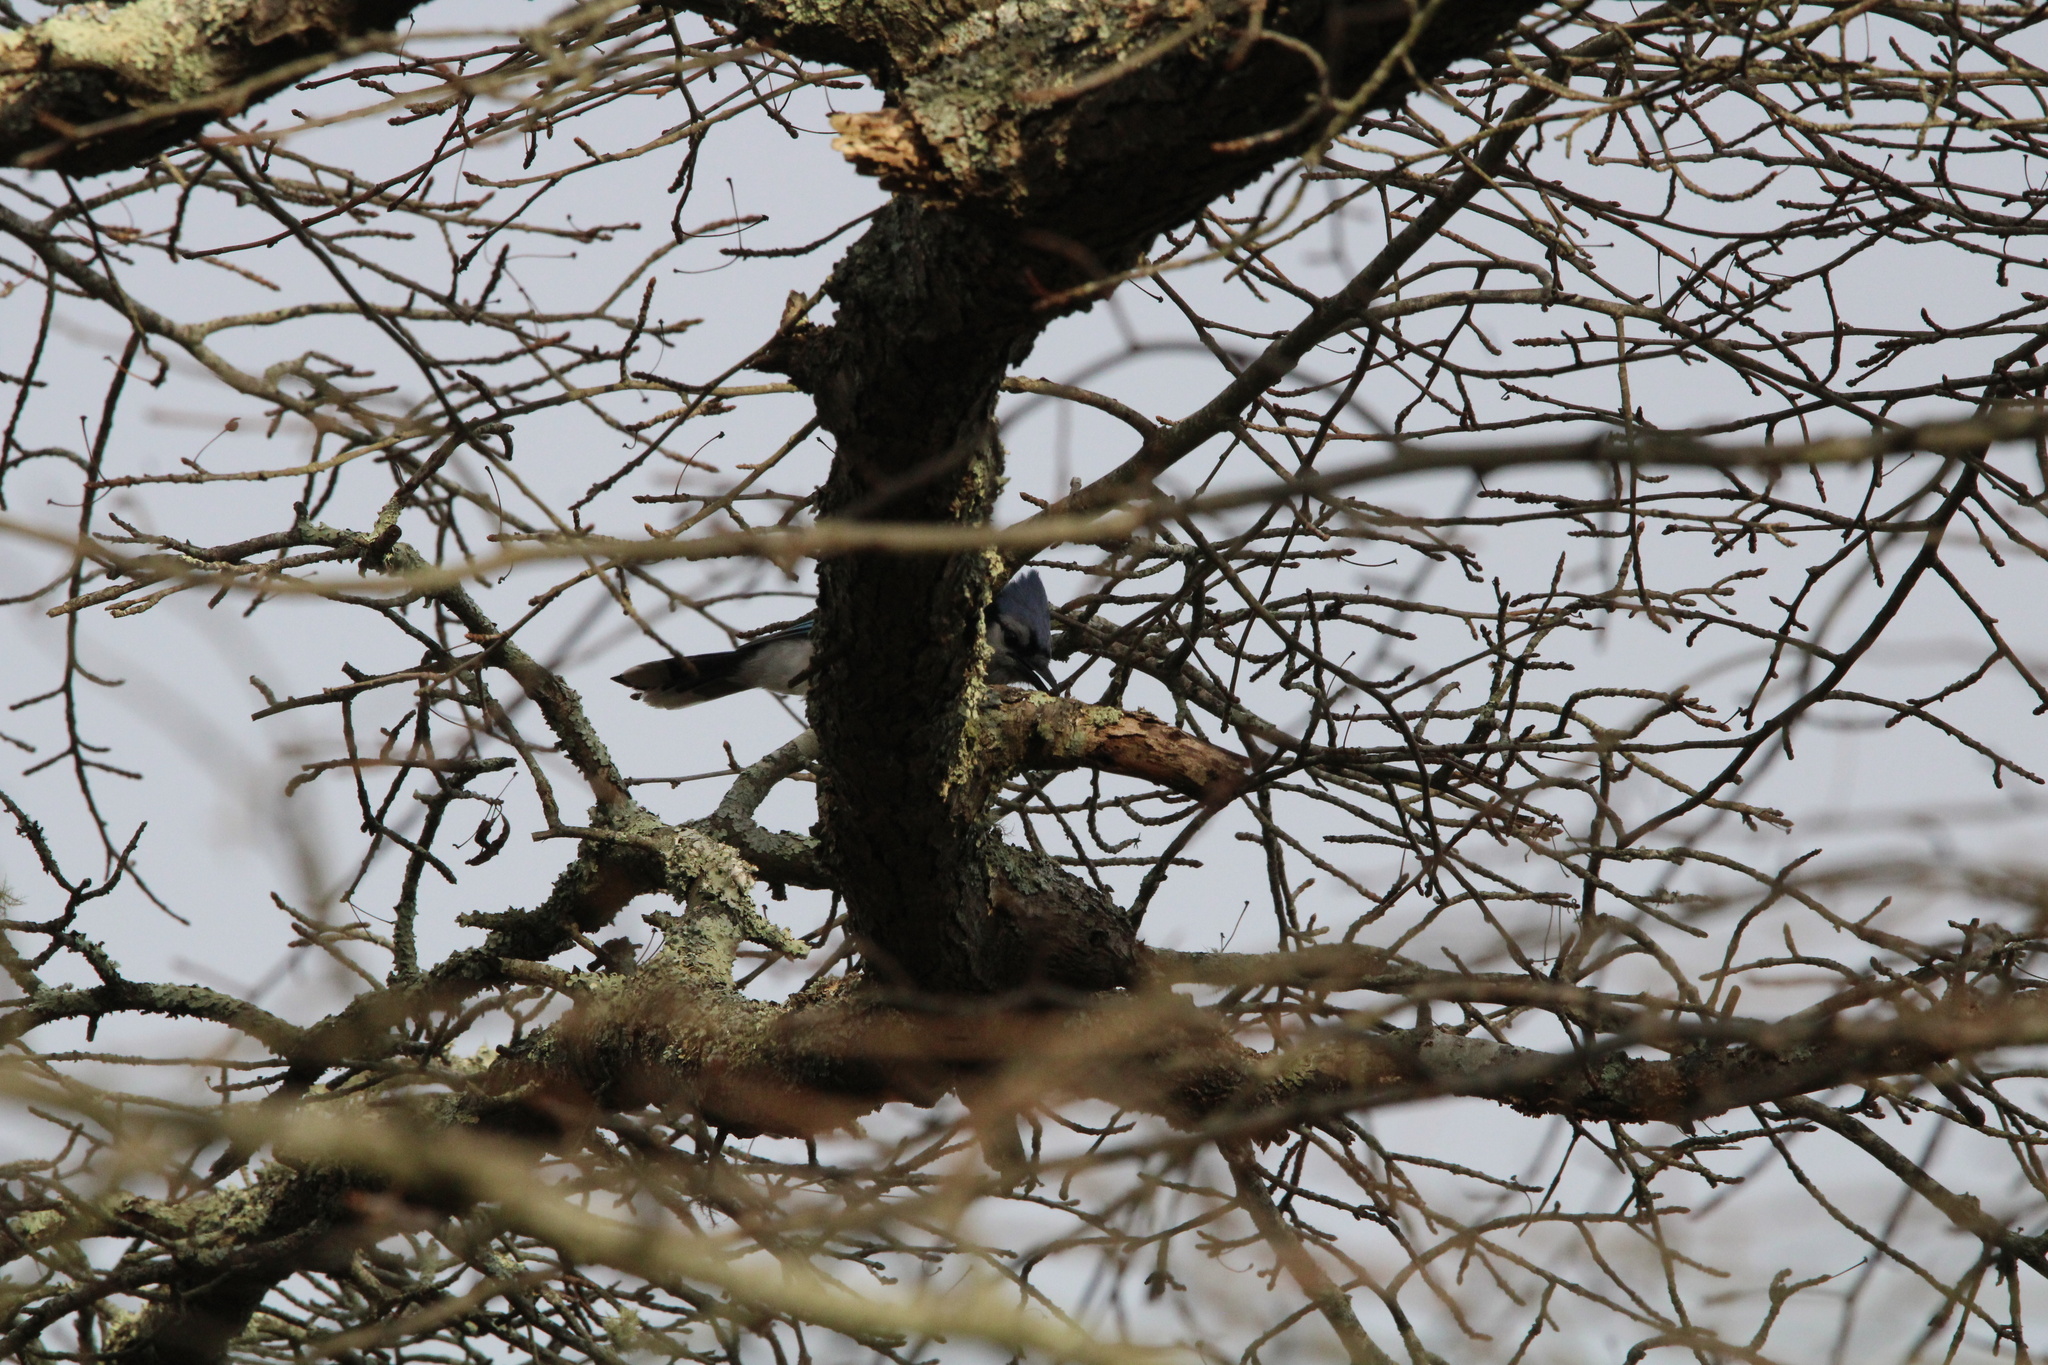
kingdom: Animalia
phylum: Chordata
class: Aves
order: Passeriformes
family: Corvidae
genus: Cyanocitta
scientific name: Cyanocitta cristata
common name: Blue jay
